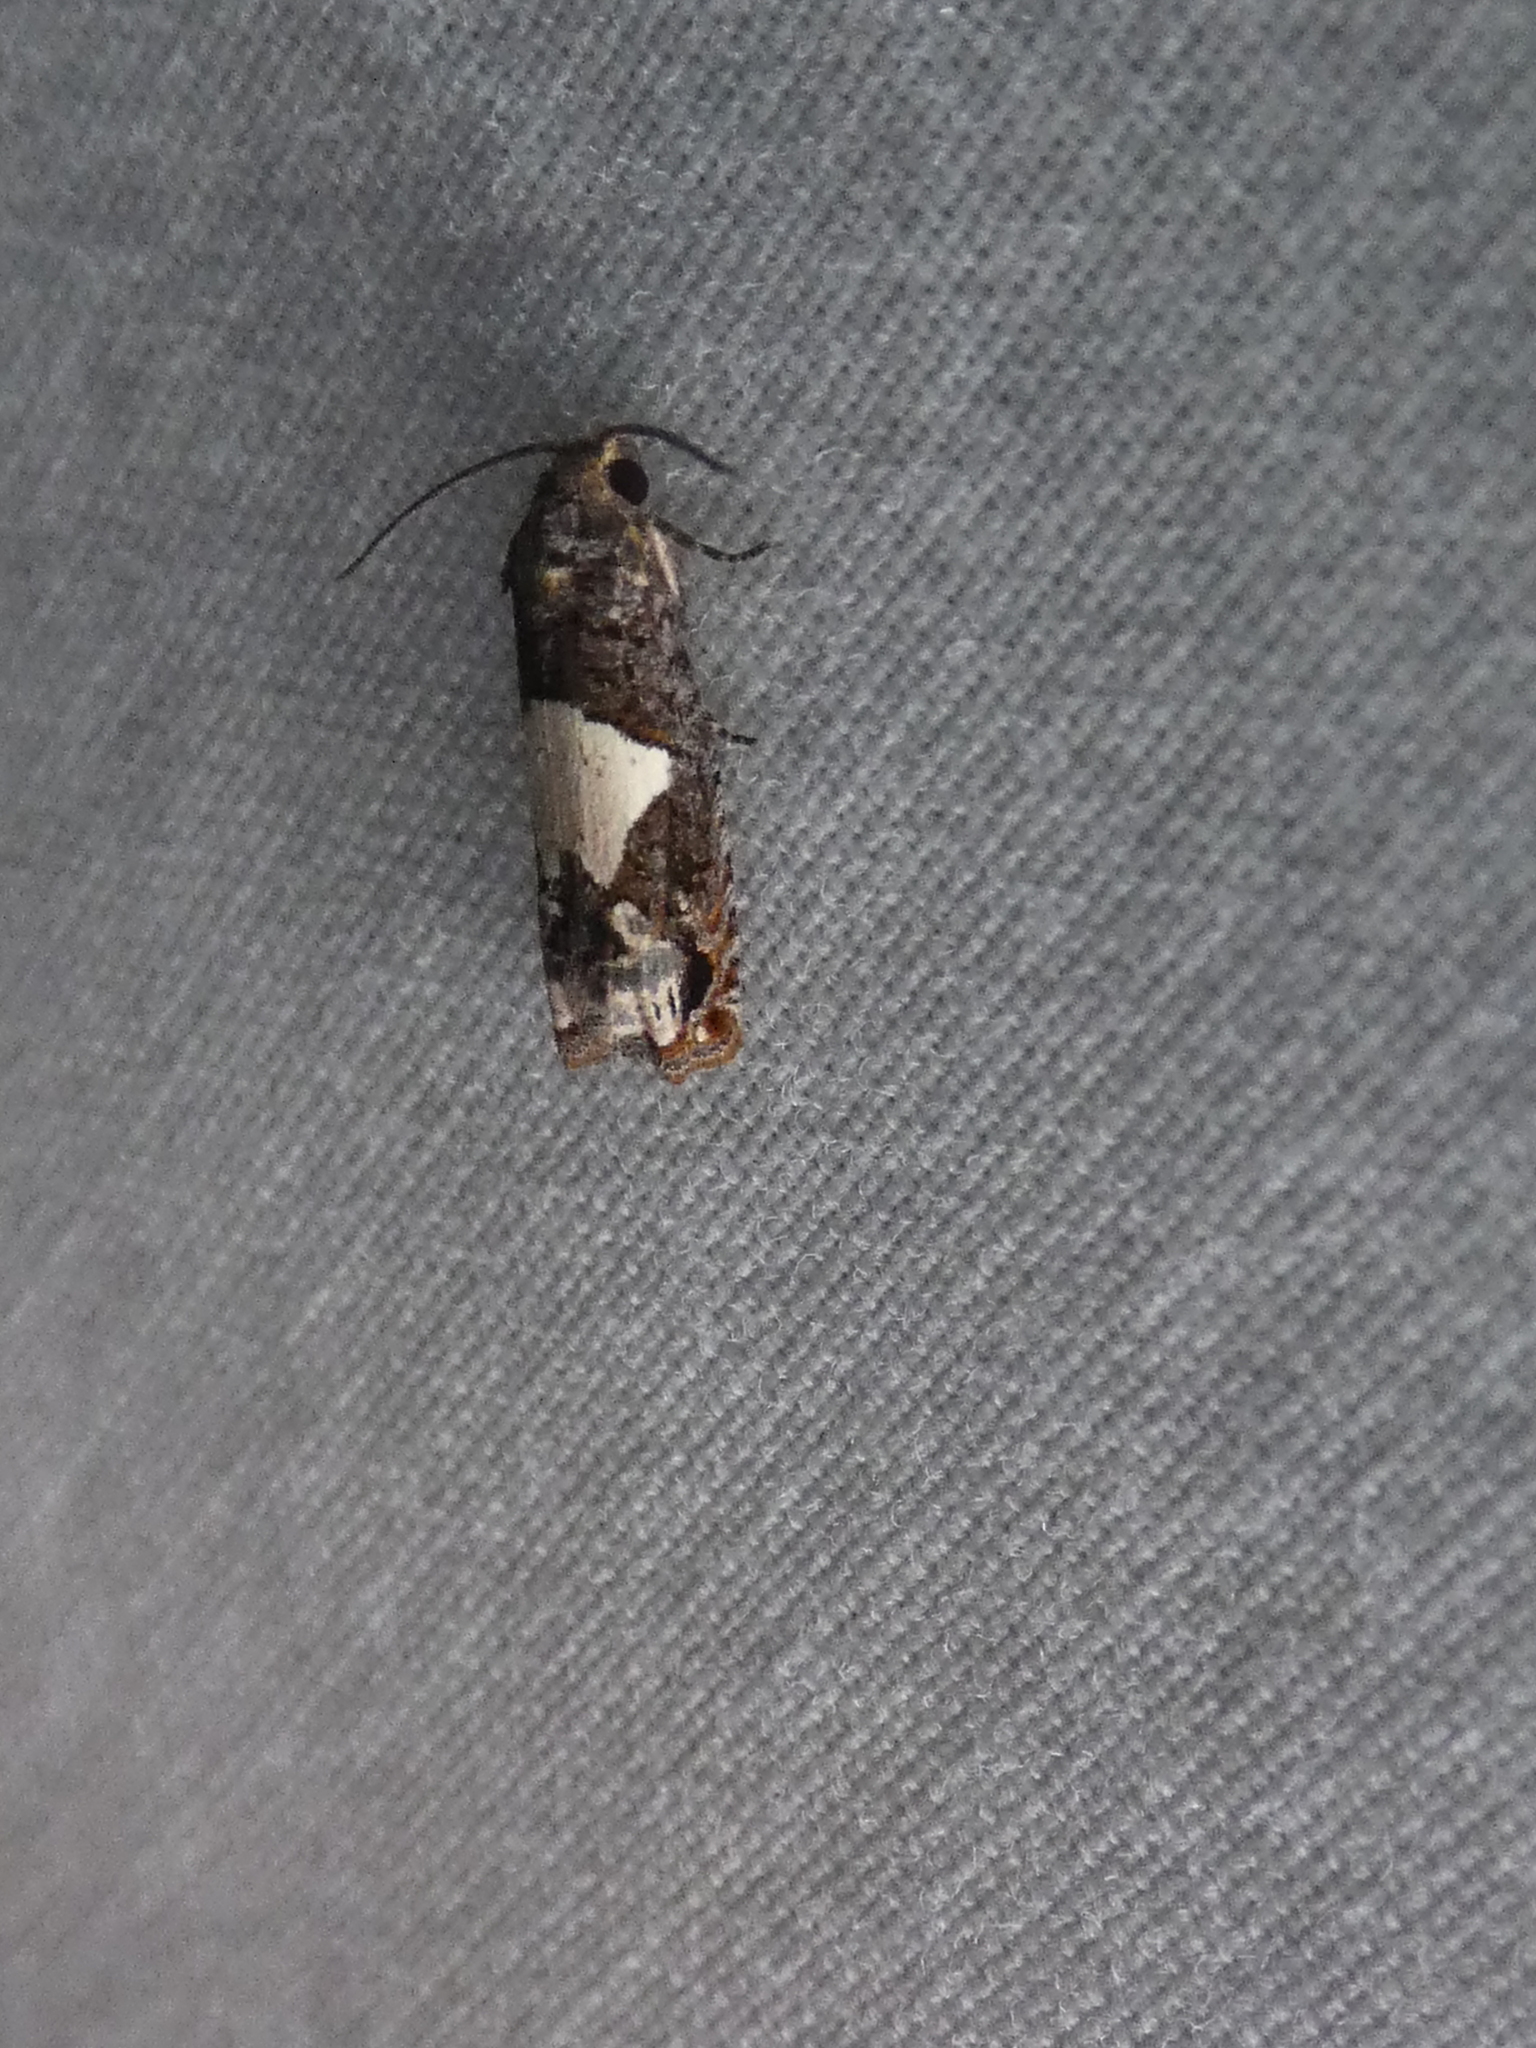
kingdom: Animalia
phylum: Arthropoda
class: Insecta
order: Lepidoptera
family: Tortricidae
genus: Epiblema
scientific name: Epiblema otiosana
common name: Bidens borer moth
